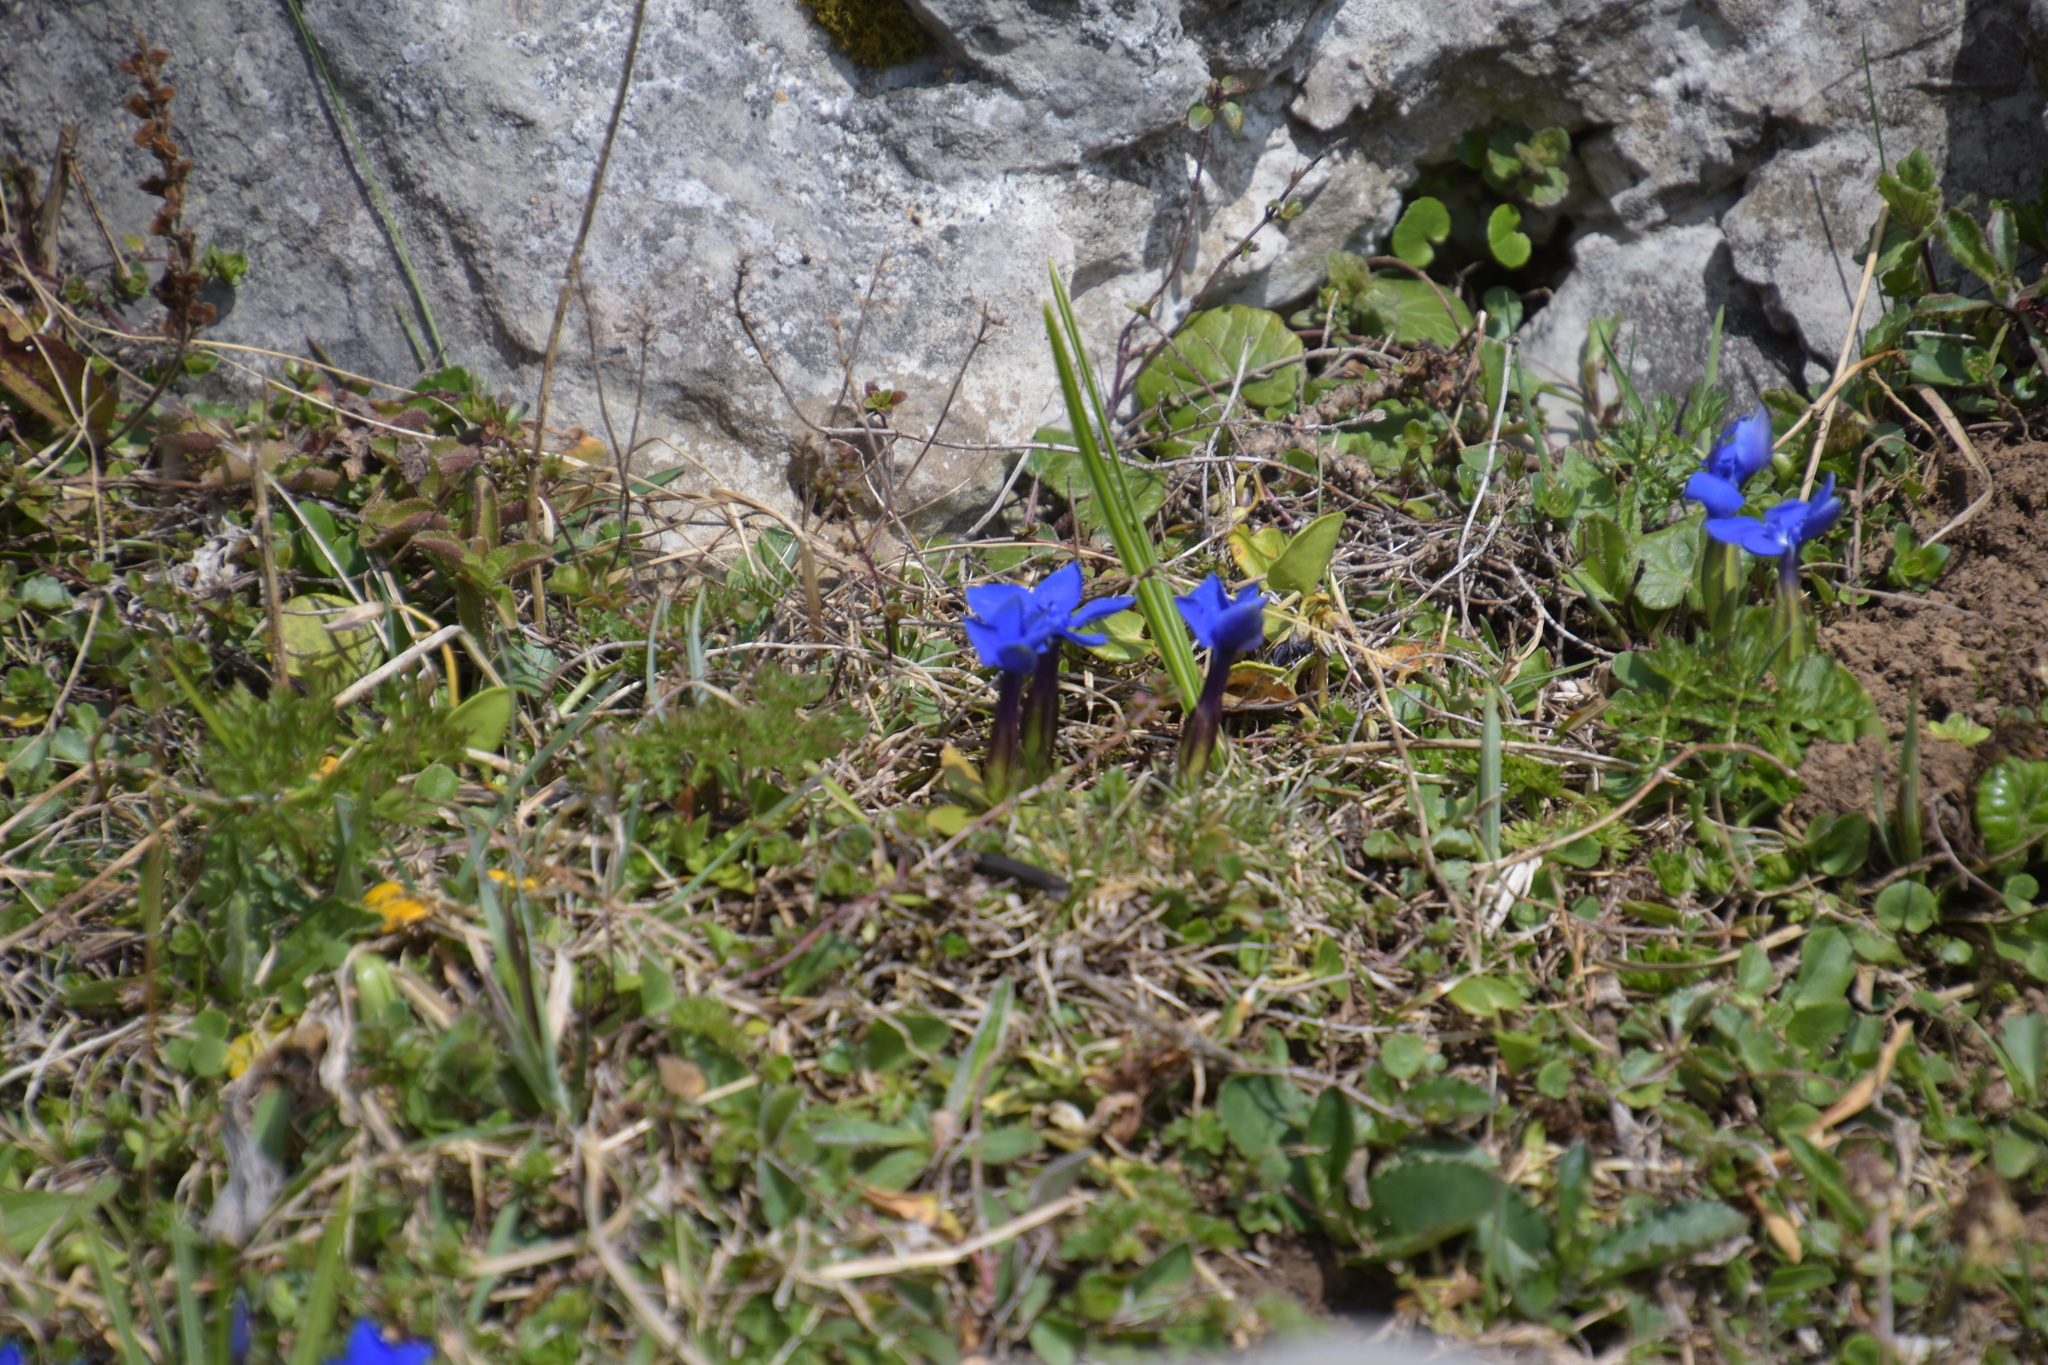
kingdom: Plantae
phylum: Tracheophyta
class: Magnoliopsida
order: Gentianales
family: Gentianaceae
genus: Gentiana
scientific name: Gentiana verna
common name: Spring gentian
